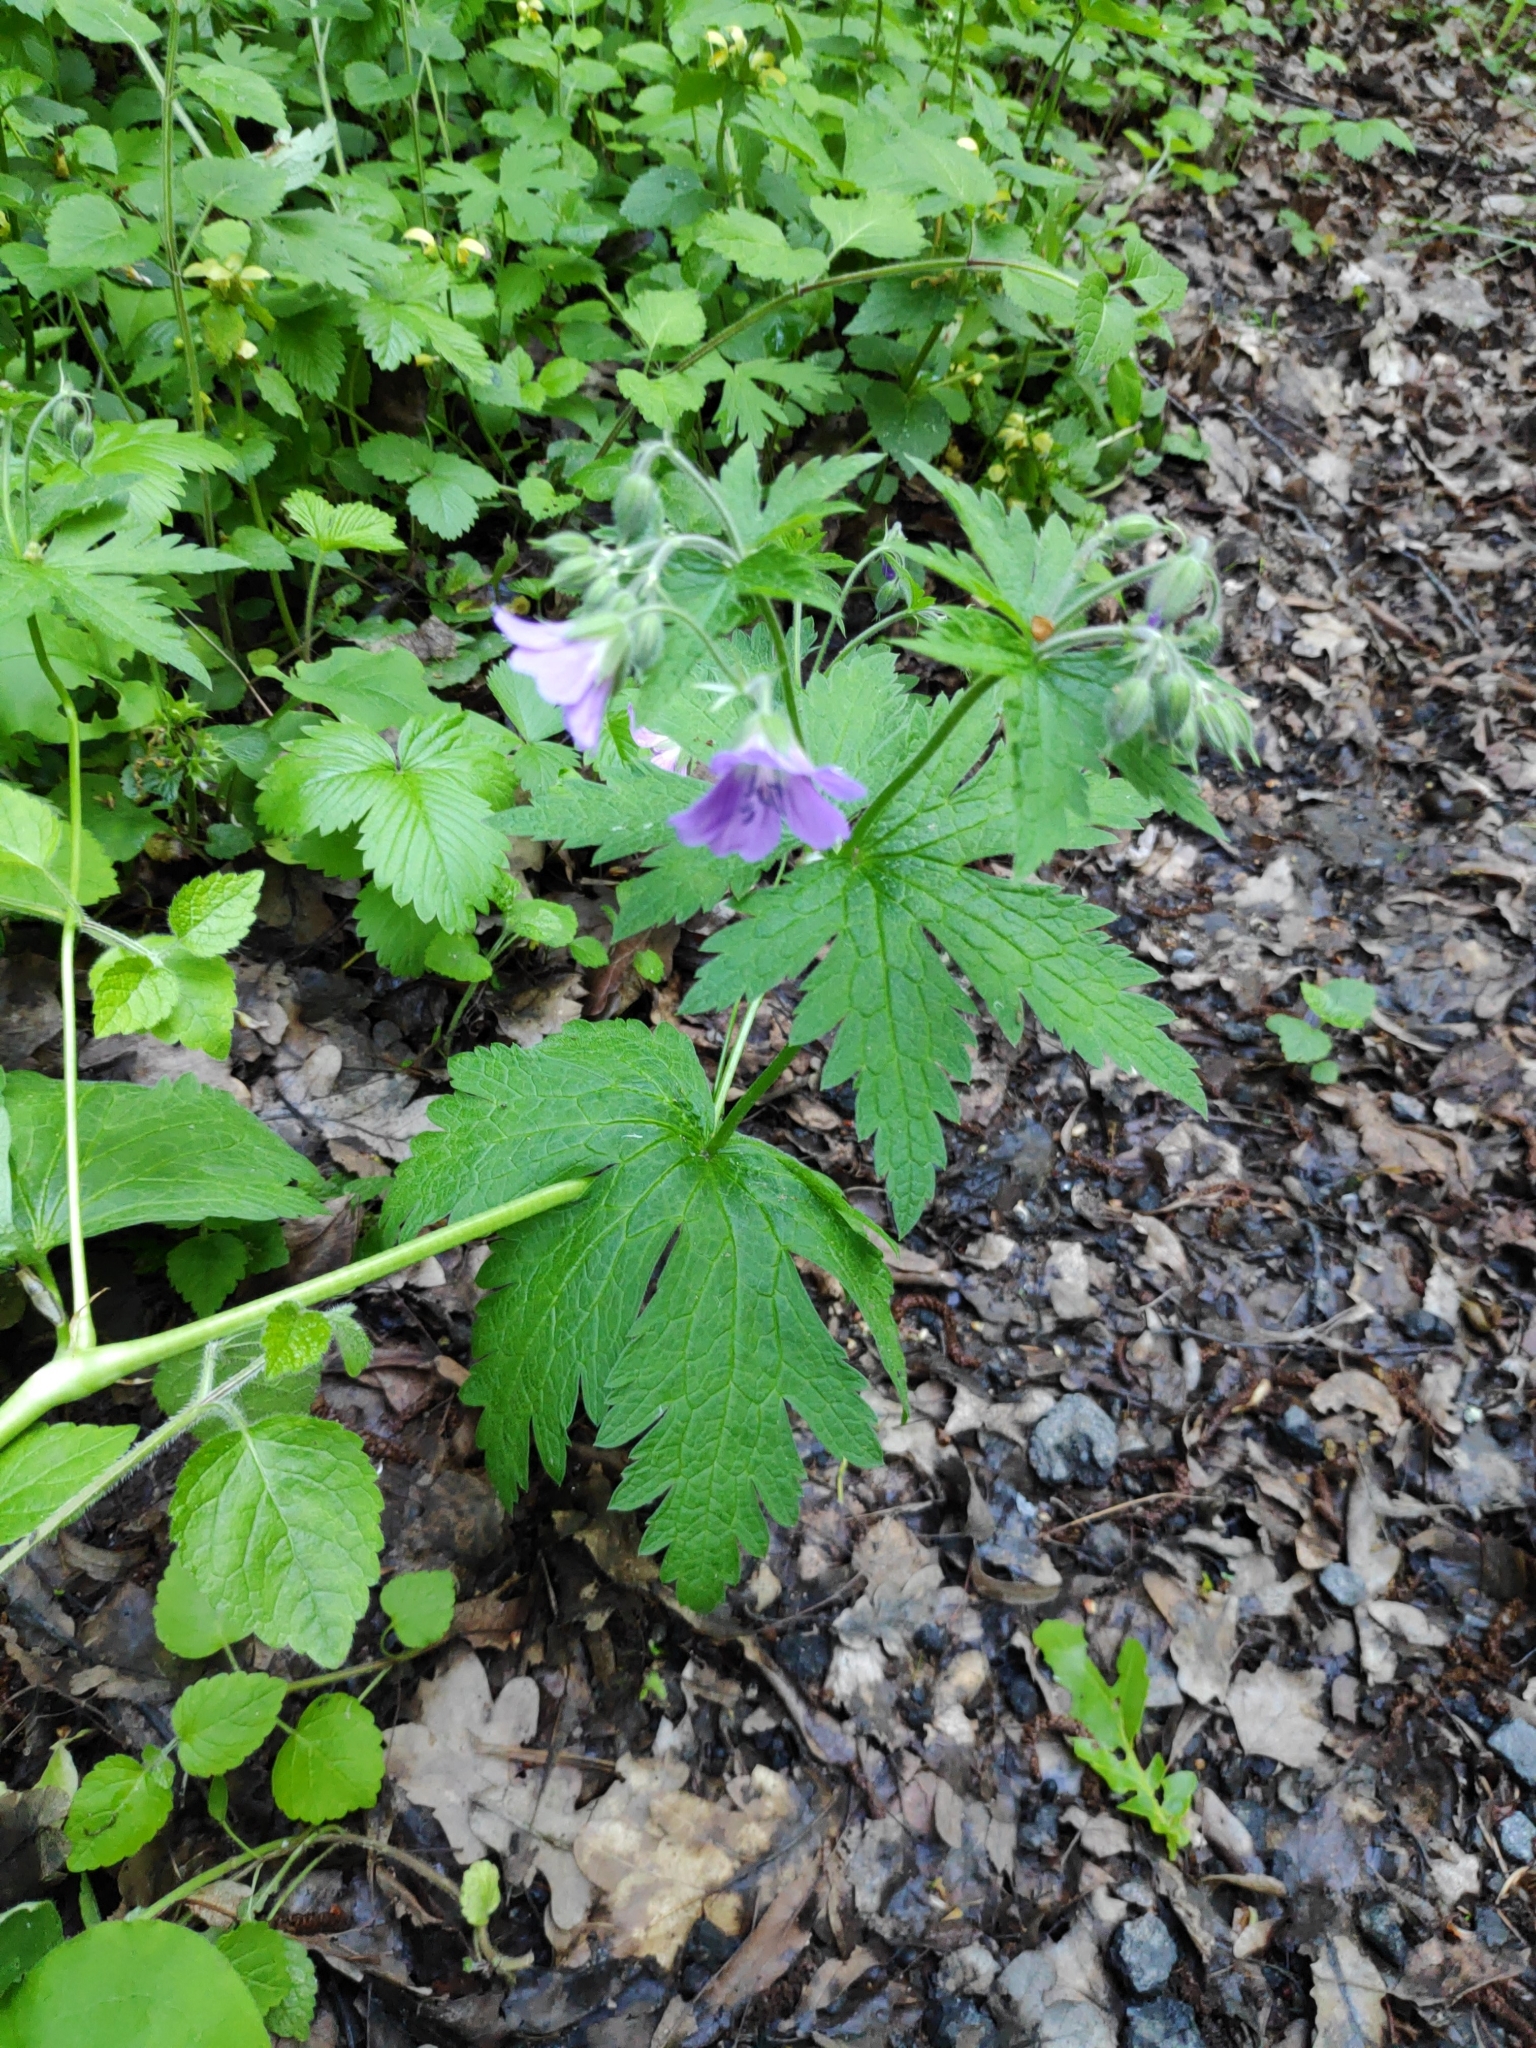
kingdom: Plantae
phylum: Tracheophyta
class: Magnoliopsida
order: Geraniales
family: Geraniaceae
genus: Geranium
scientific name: Geranium sylvaticum
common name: Wood crane's-bill
